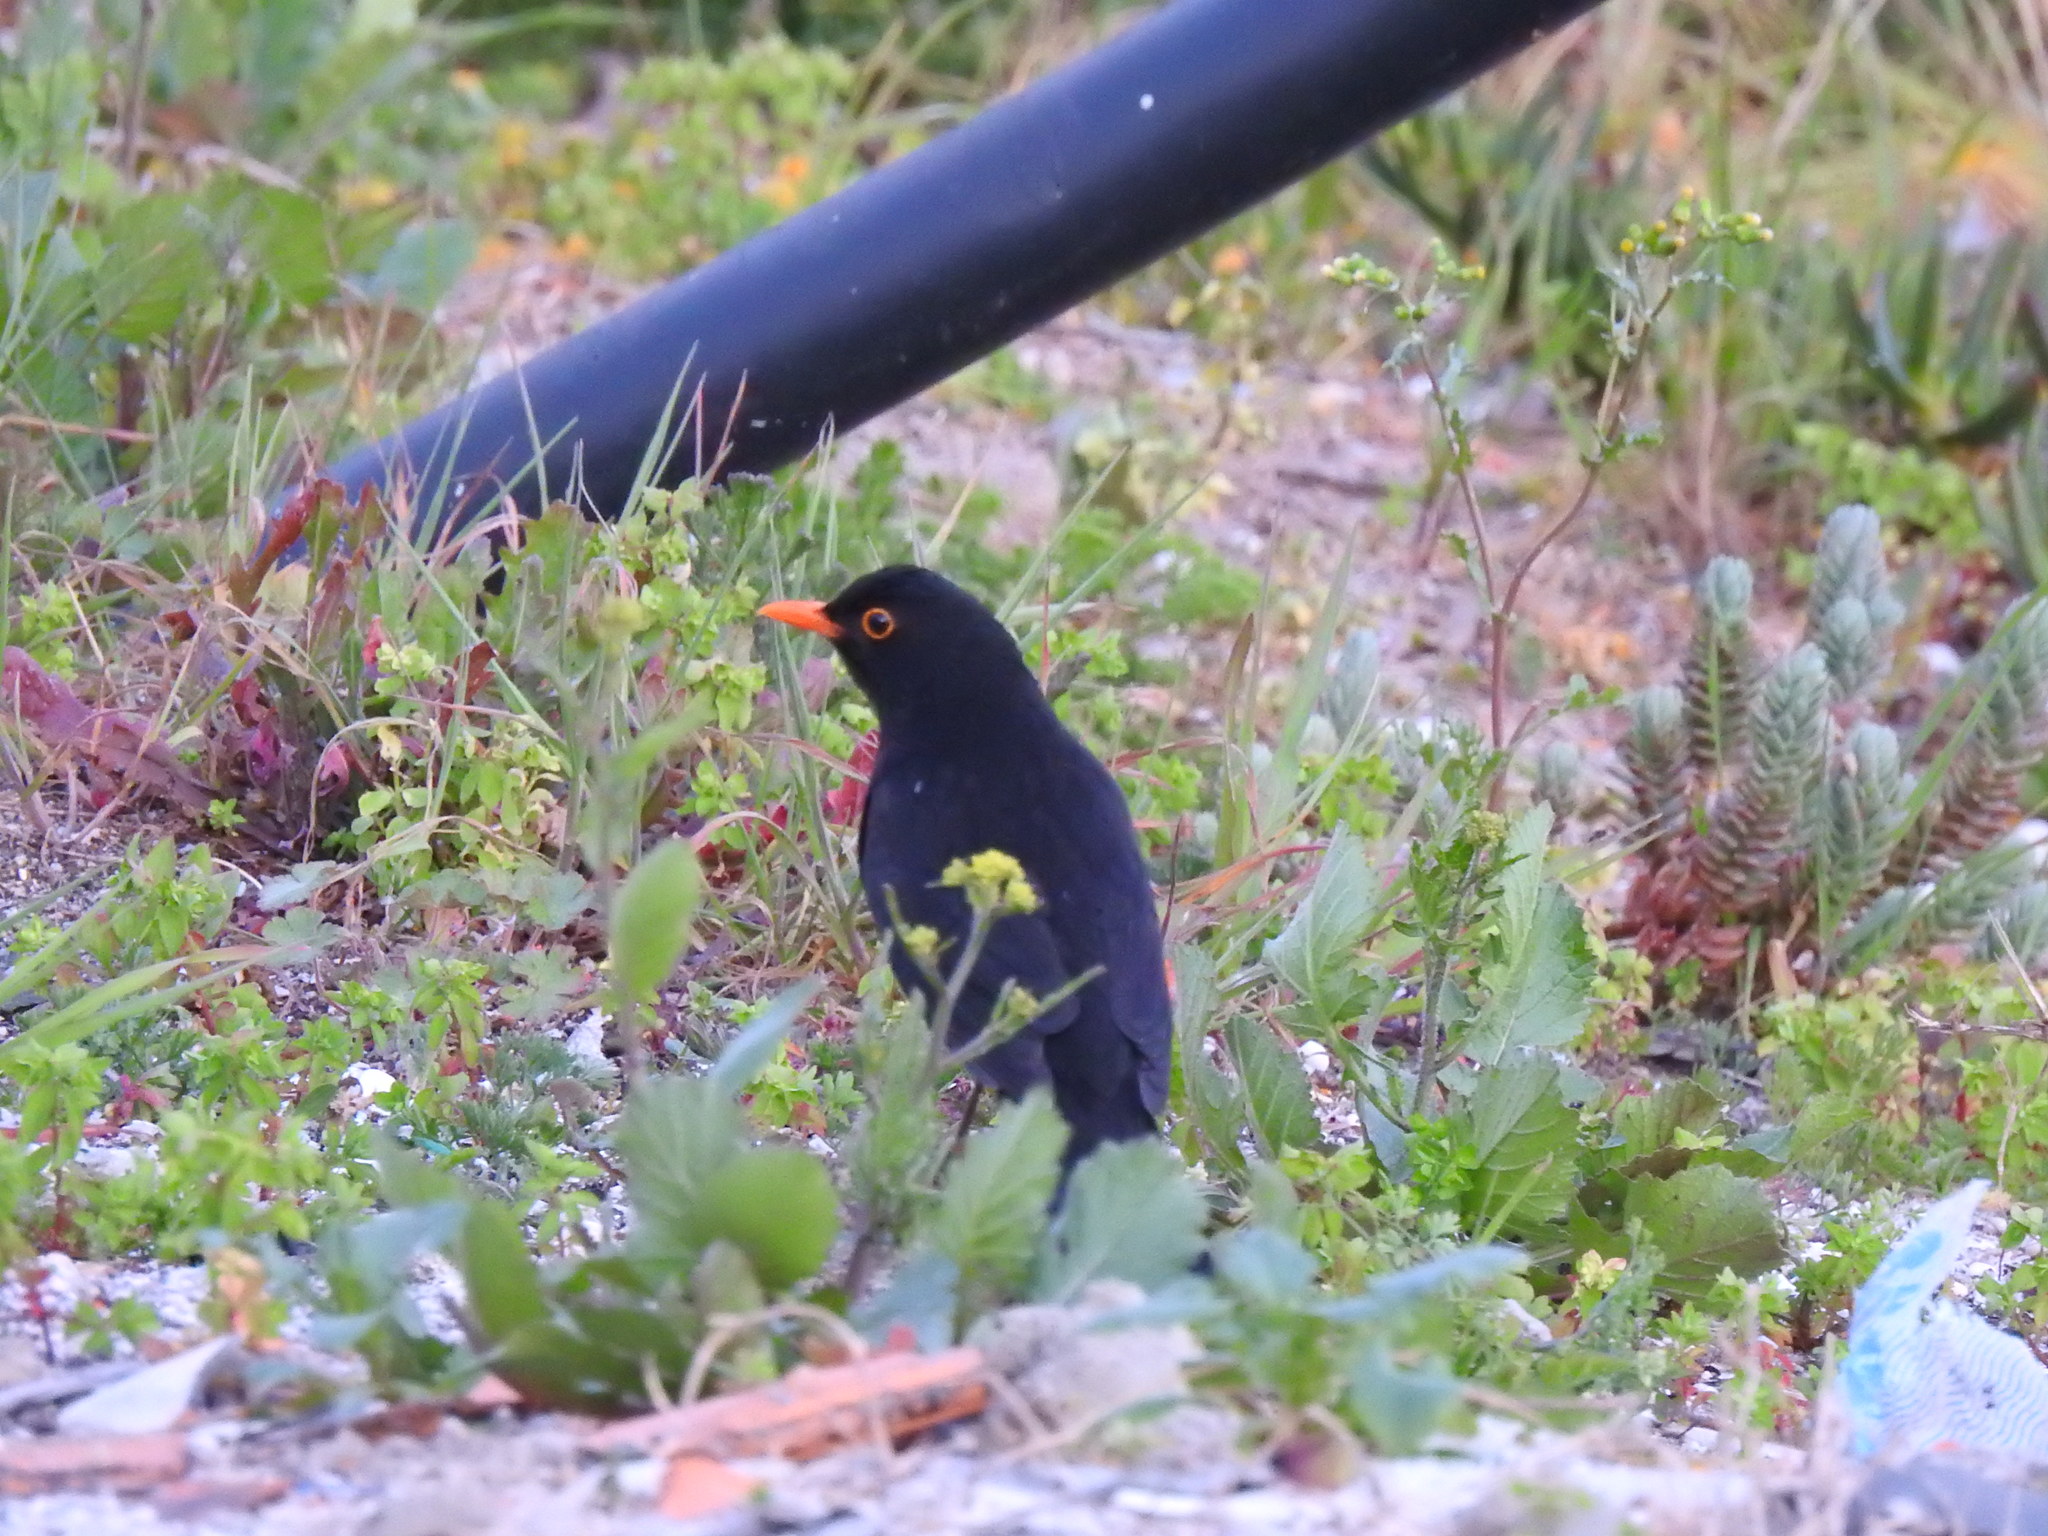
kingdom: Animalia
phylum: Chordata
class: Aves
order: Passeriformes
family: Turdidae
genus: Turdus
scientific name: Turdus merula
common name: Common blackbird
